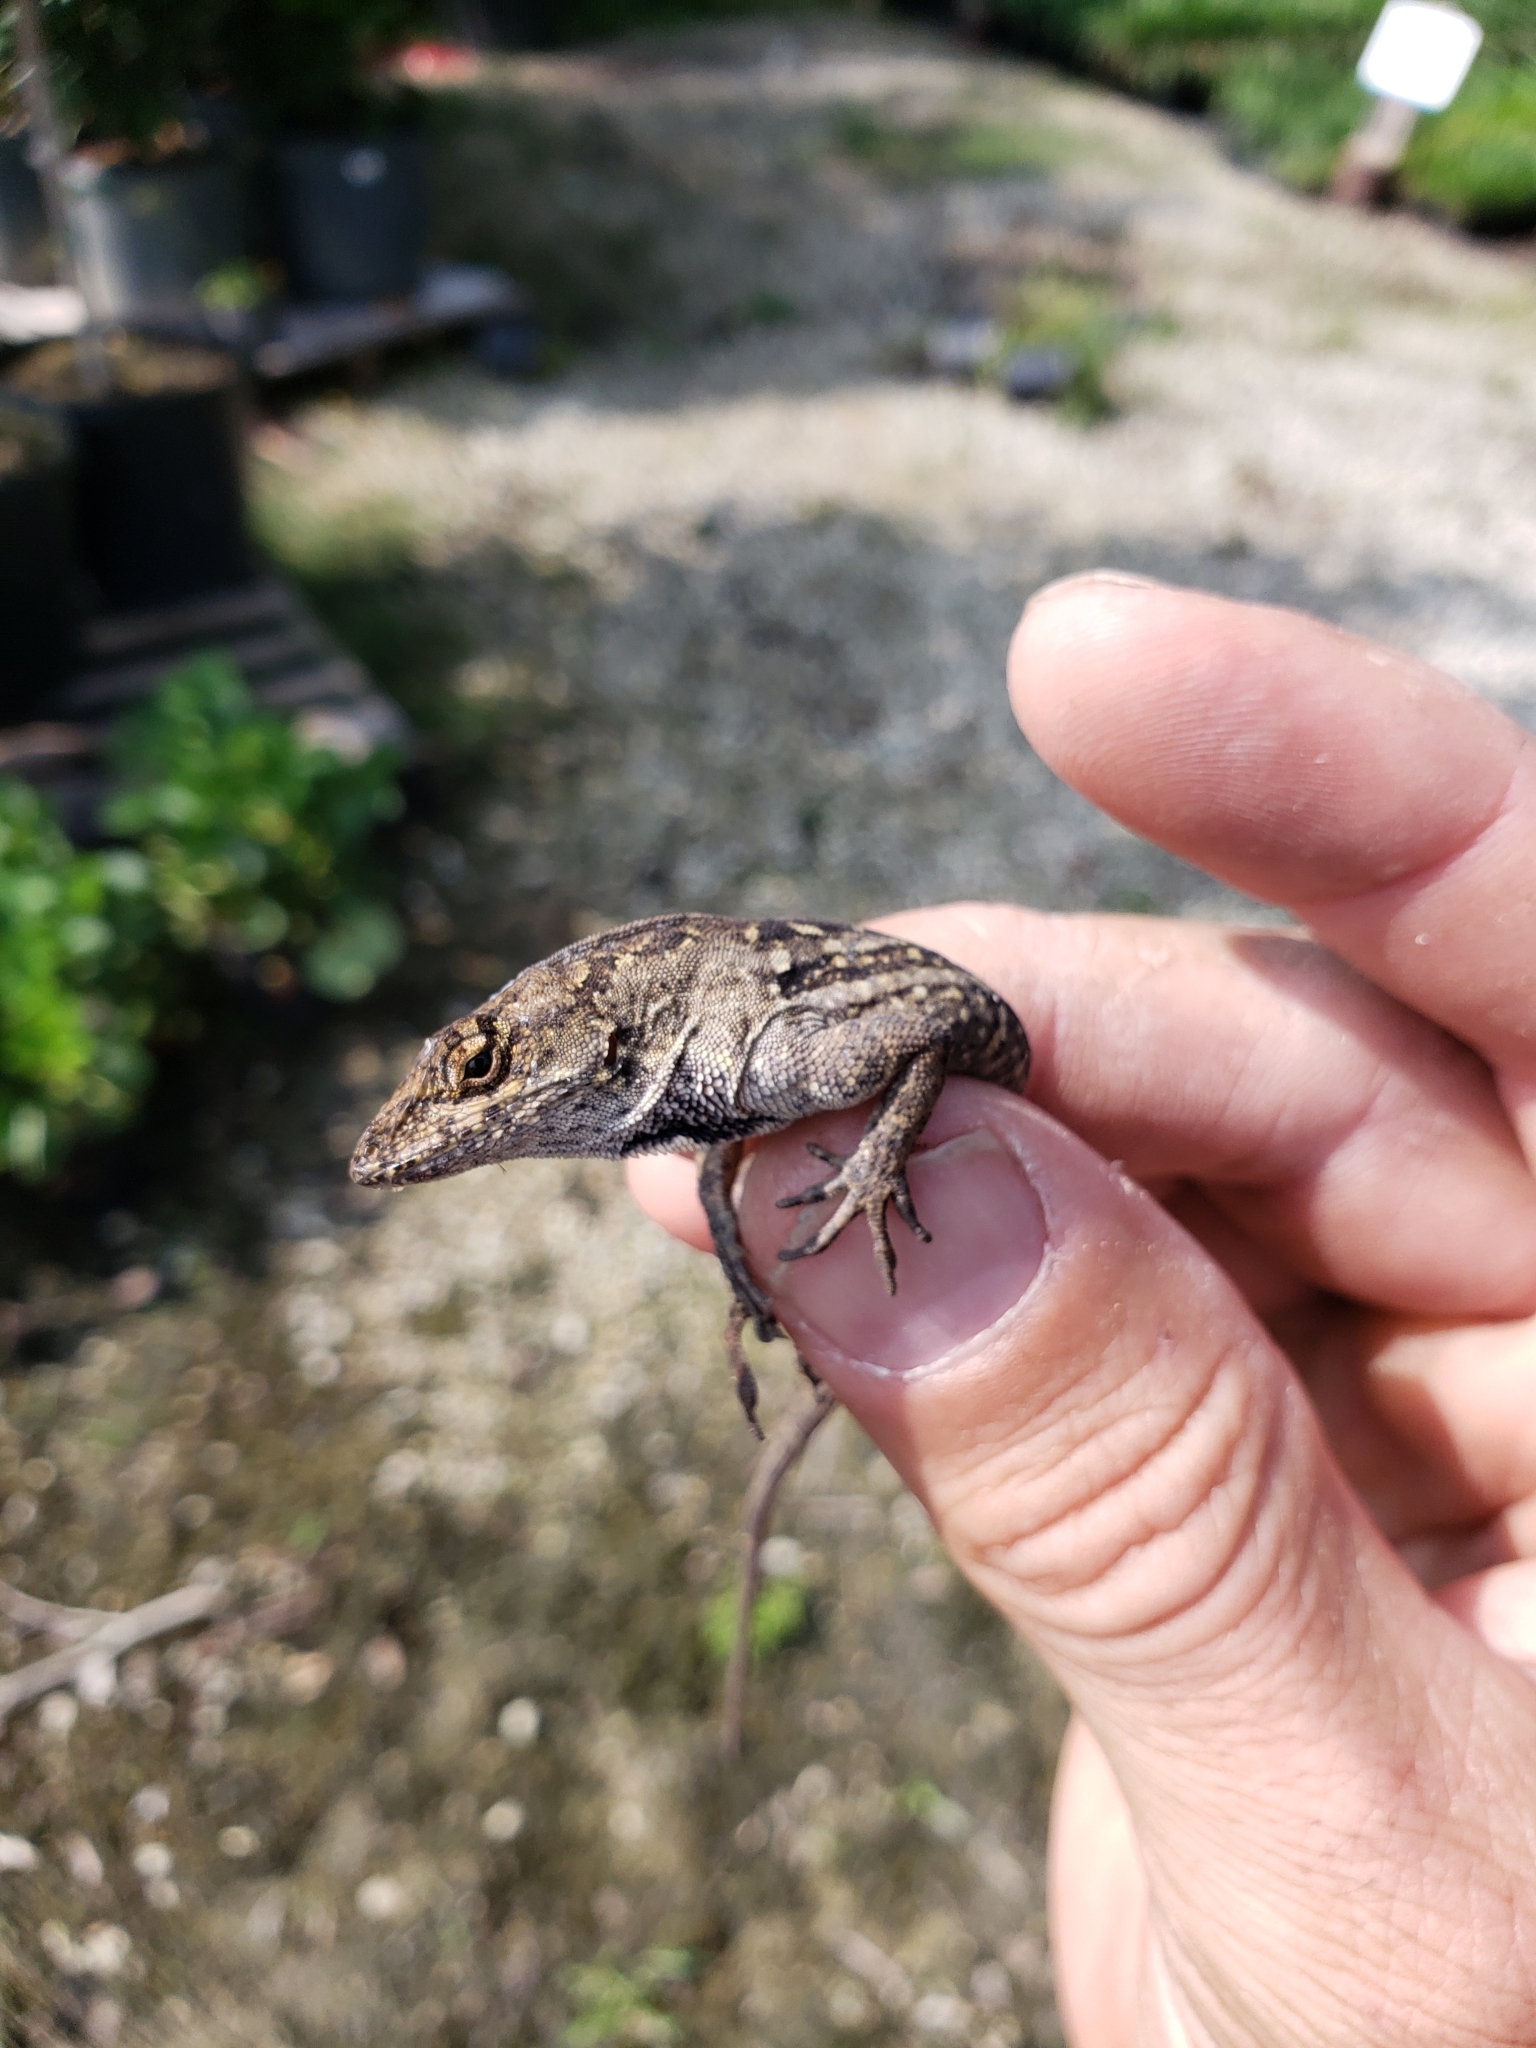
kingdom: Animalia
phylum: Chordata
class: Squamata
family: Dactyloidae
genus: Anolis
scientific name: Anolis sagrei
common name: Brown anole
